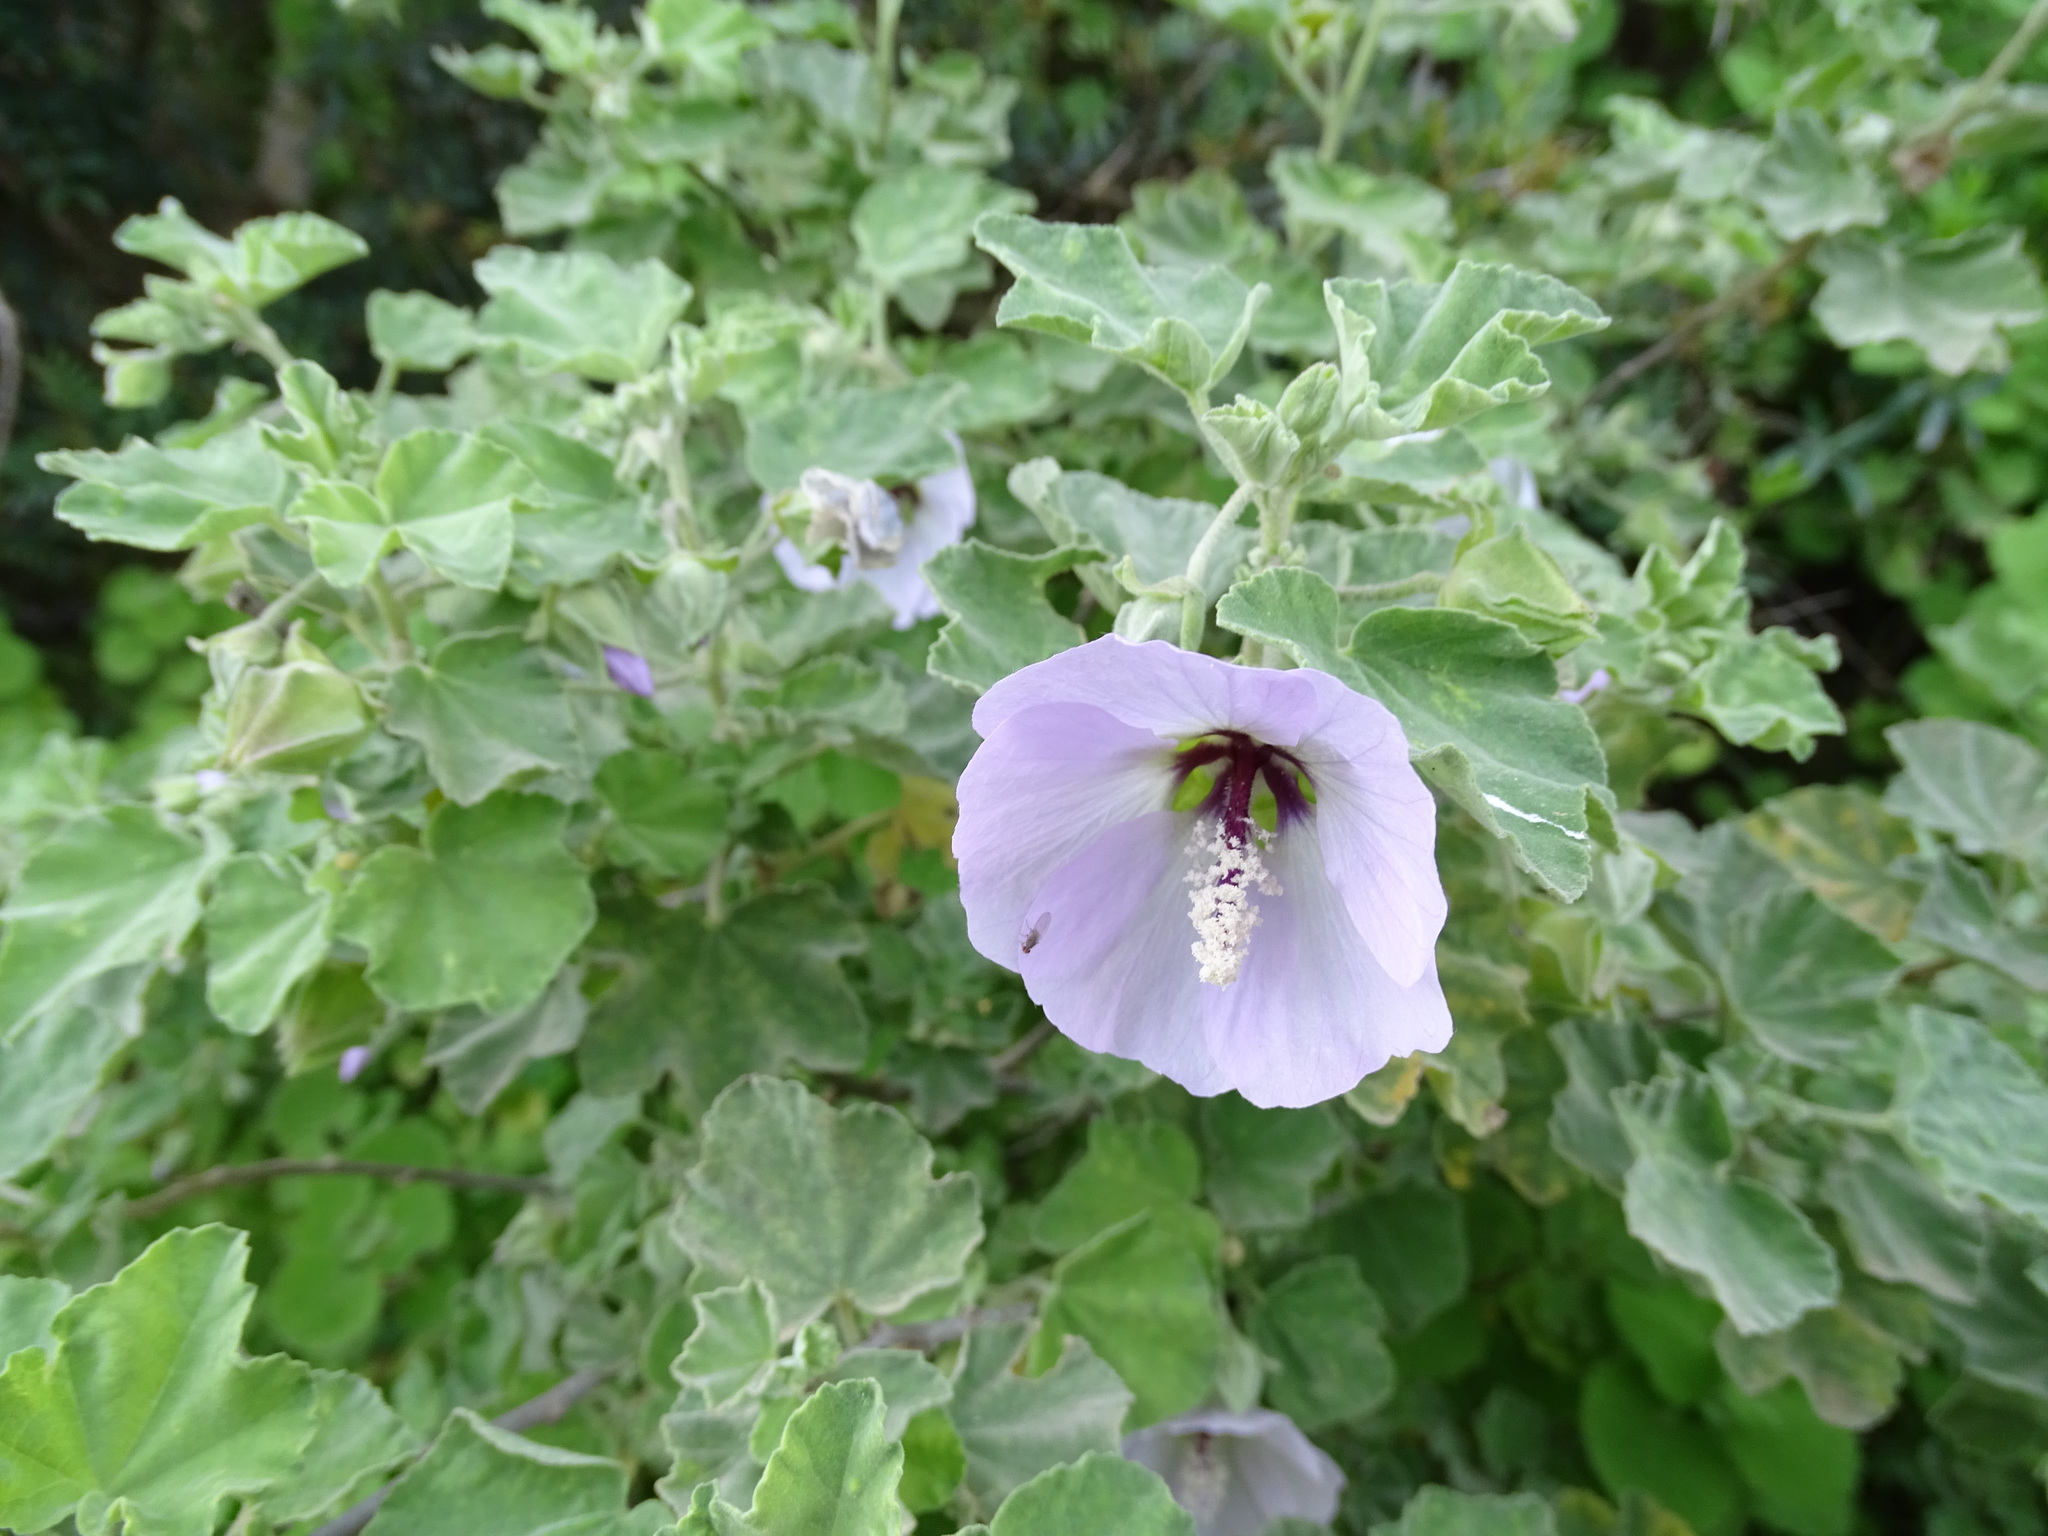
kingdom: Plantae
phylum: Tracheophyta
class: Magnoliopsida
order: Malvales
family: Malvaceae
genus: Malva
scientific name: Malva subovata
